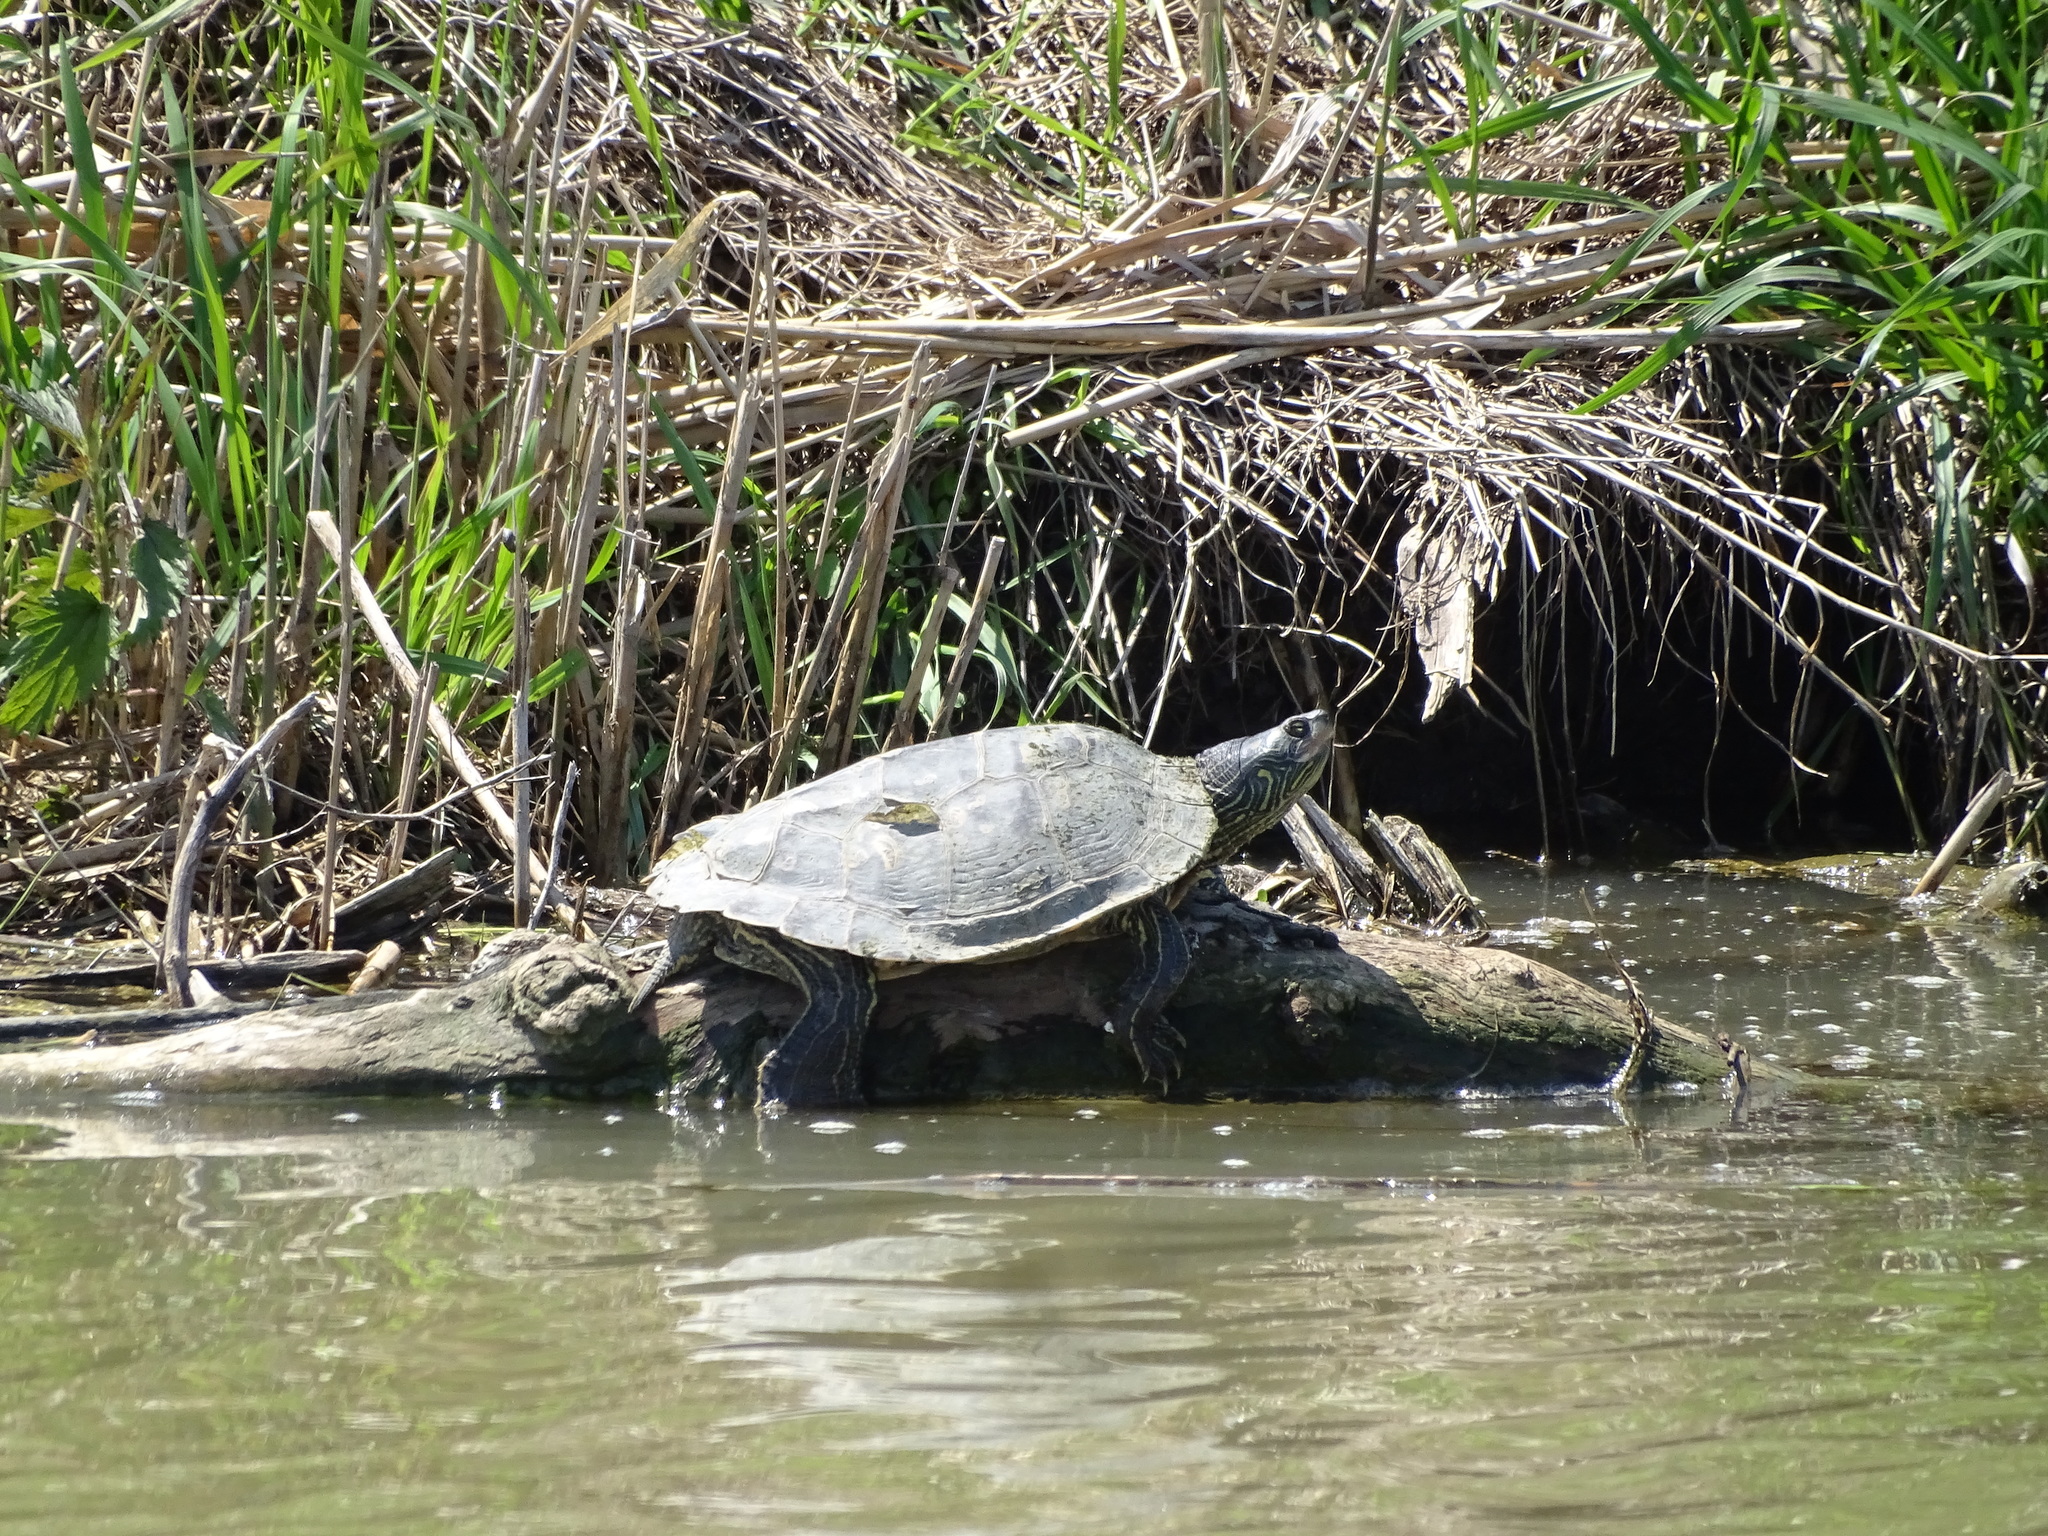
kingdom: Animalia
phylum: Chordata
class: Testudines
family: Emydidae
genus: Graptemys
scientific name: Graptemys geographica
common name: Common map turtle
